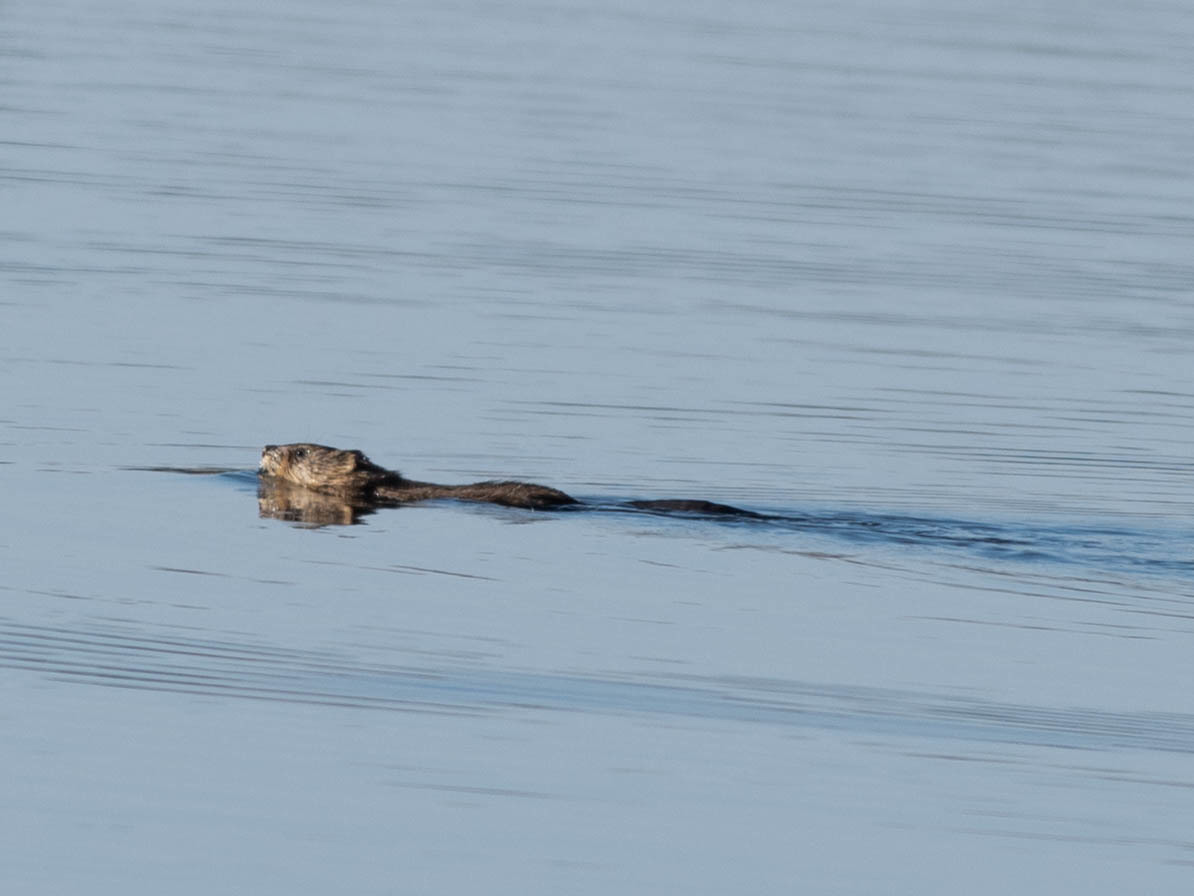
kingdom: Animalia
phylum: Chordata
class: Mammalia
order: Rodentia
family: Cricetidae
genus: Ondatra
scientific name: Ondatra zibethicus
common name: Muskrat
